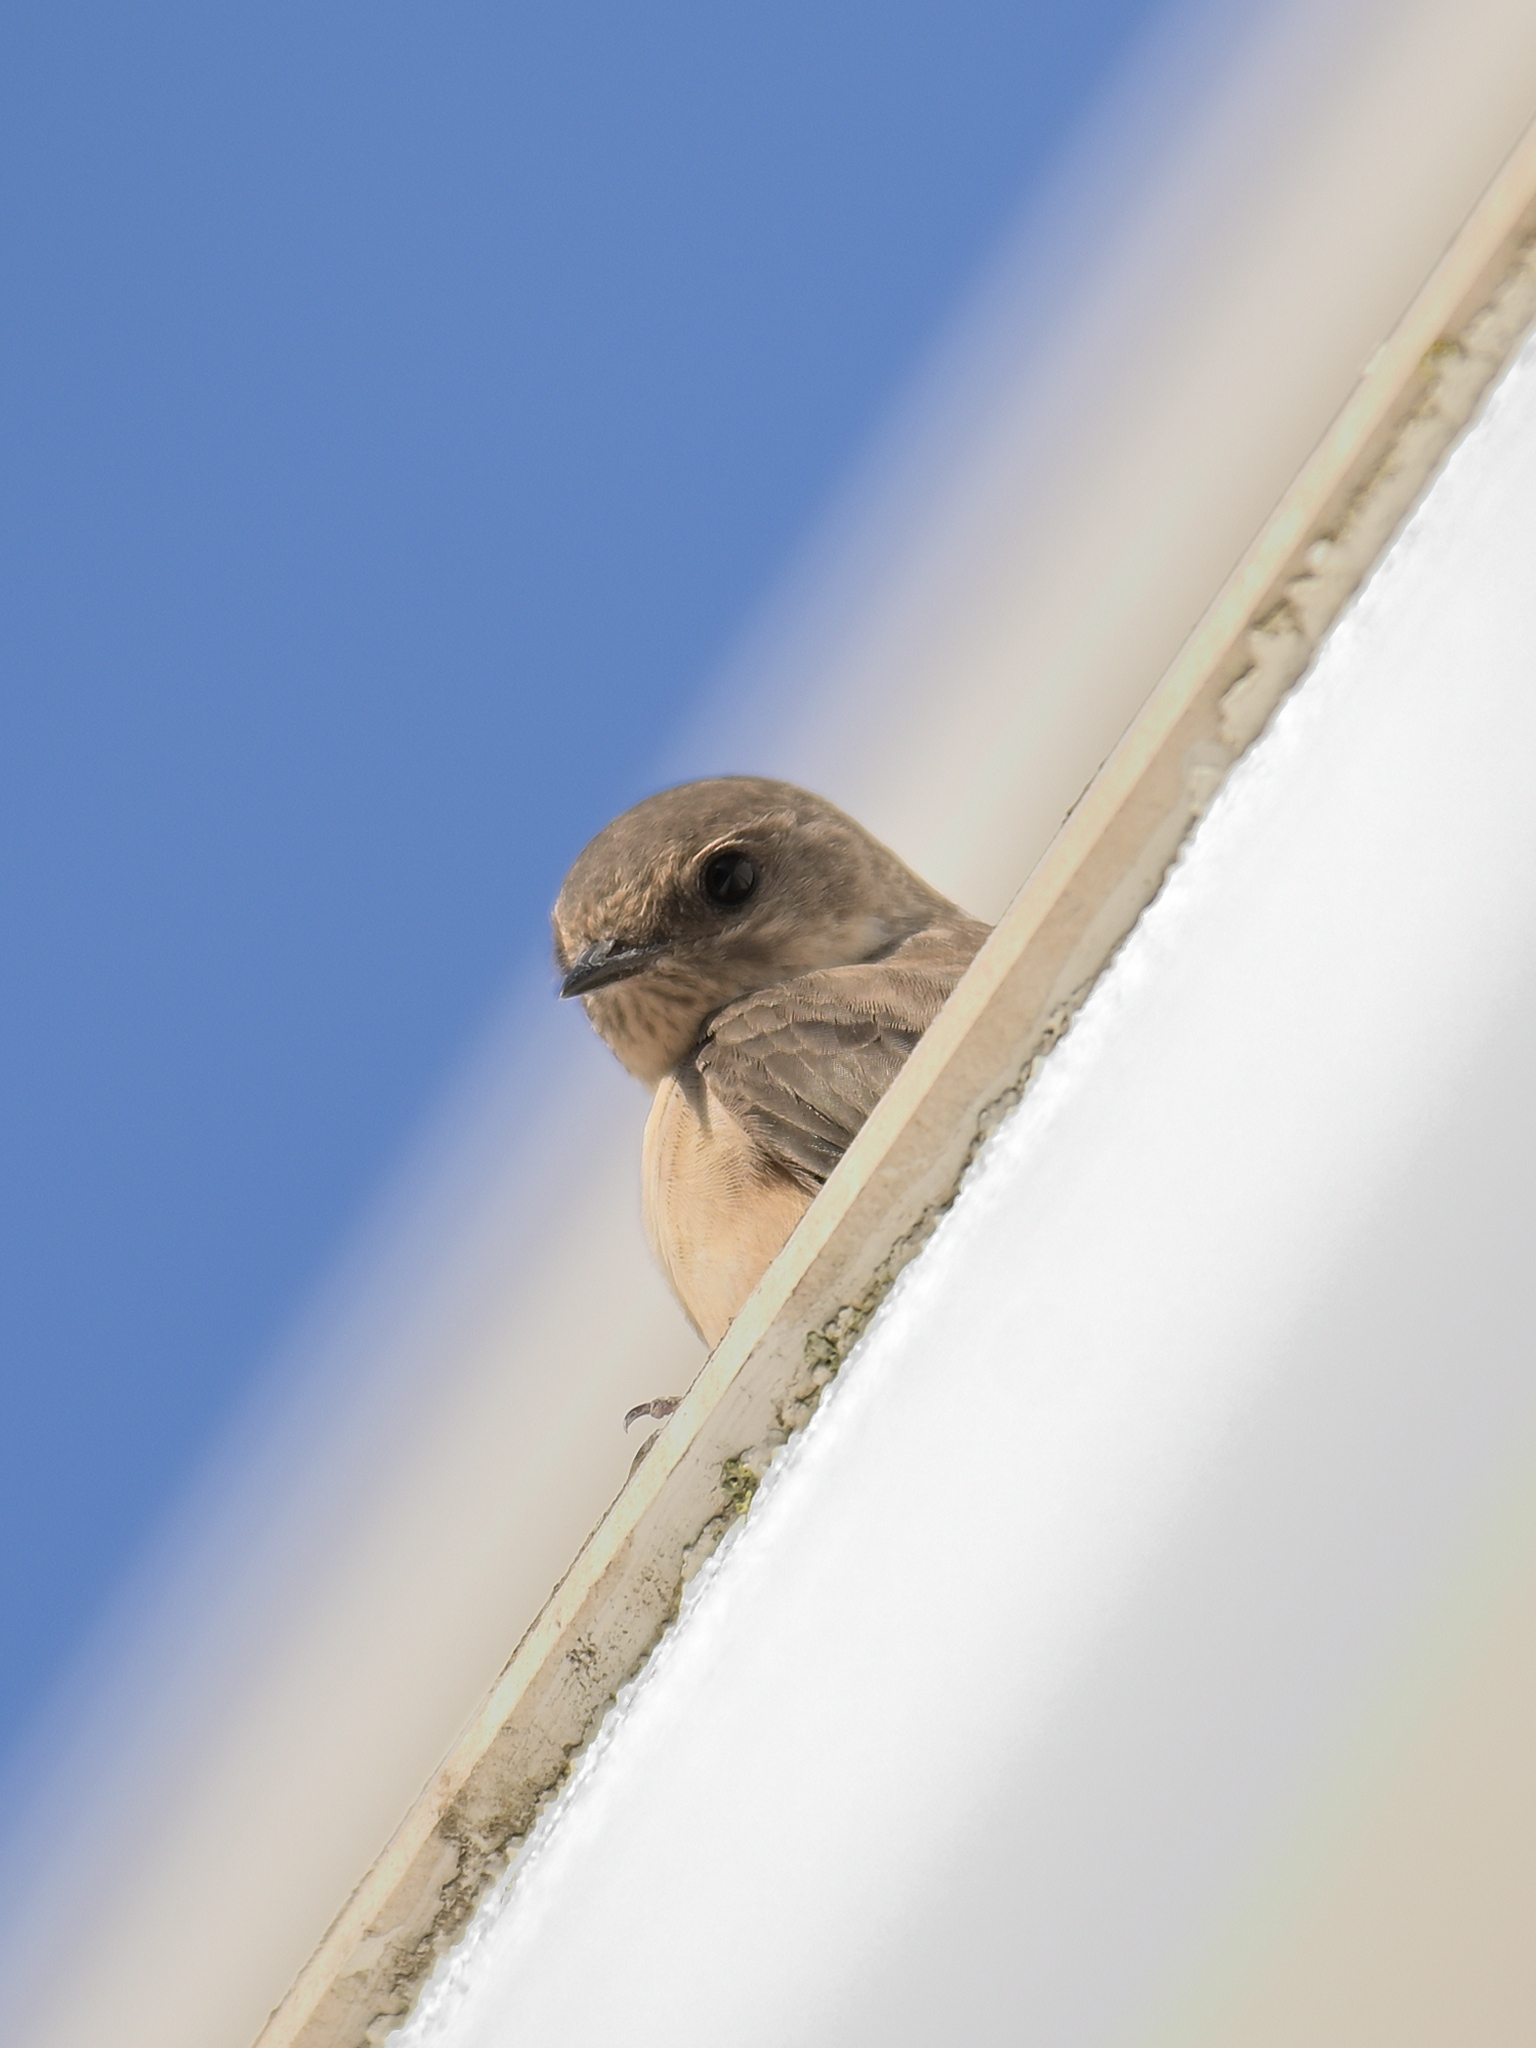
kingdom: Animalia
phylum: Chordata
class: Aves
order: Passeriformes
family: Hirundinidae
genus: Ptyonoprogne
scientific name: Ptyonoprogne rupestris
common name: Eurasian crag martin
